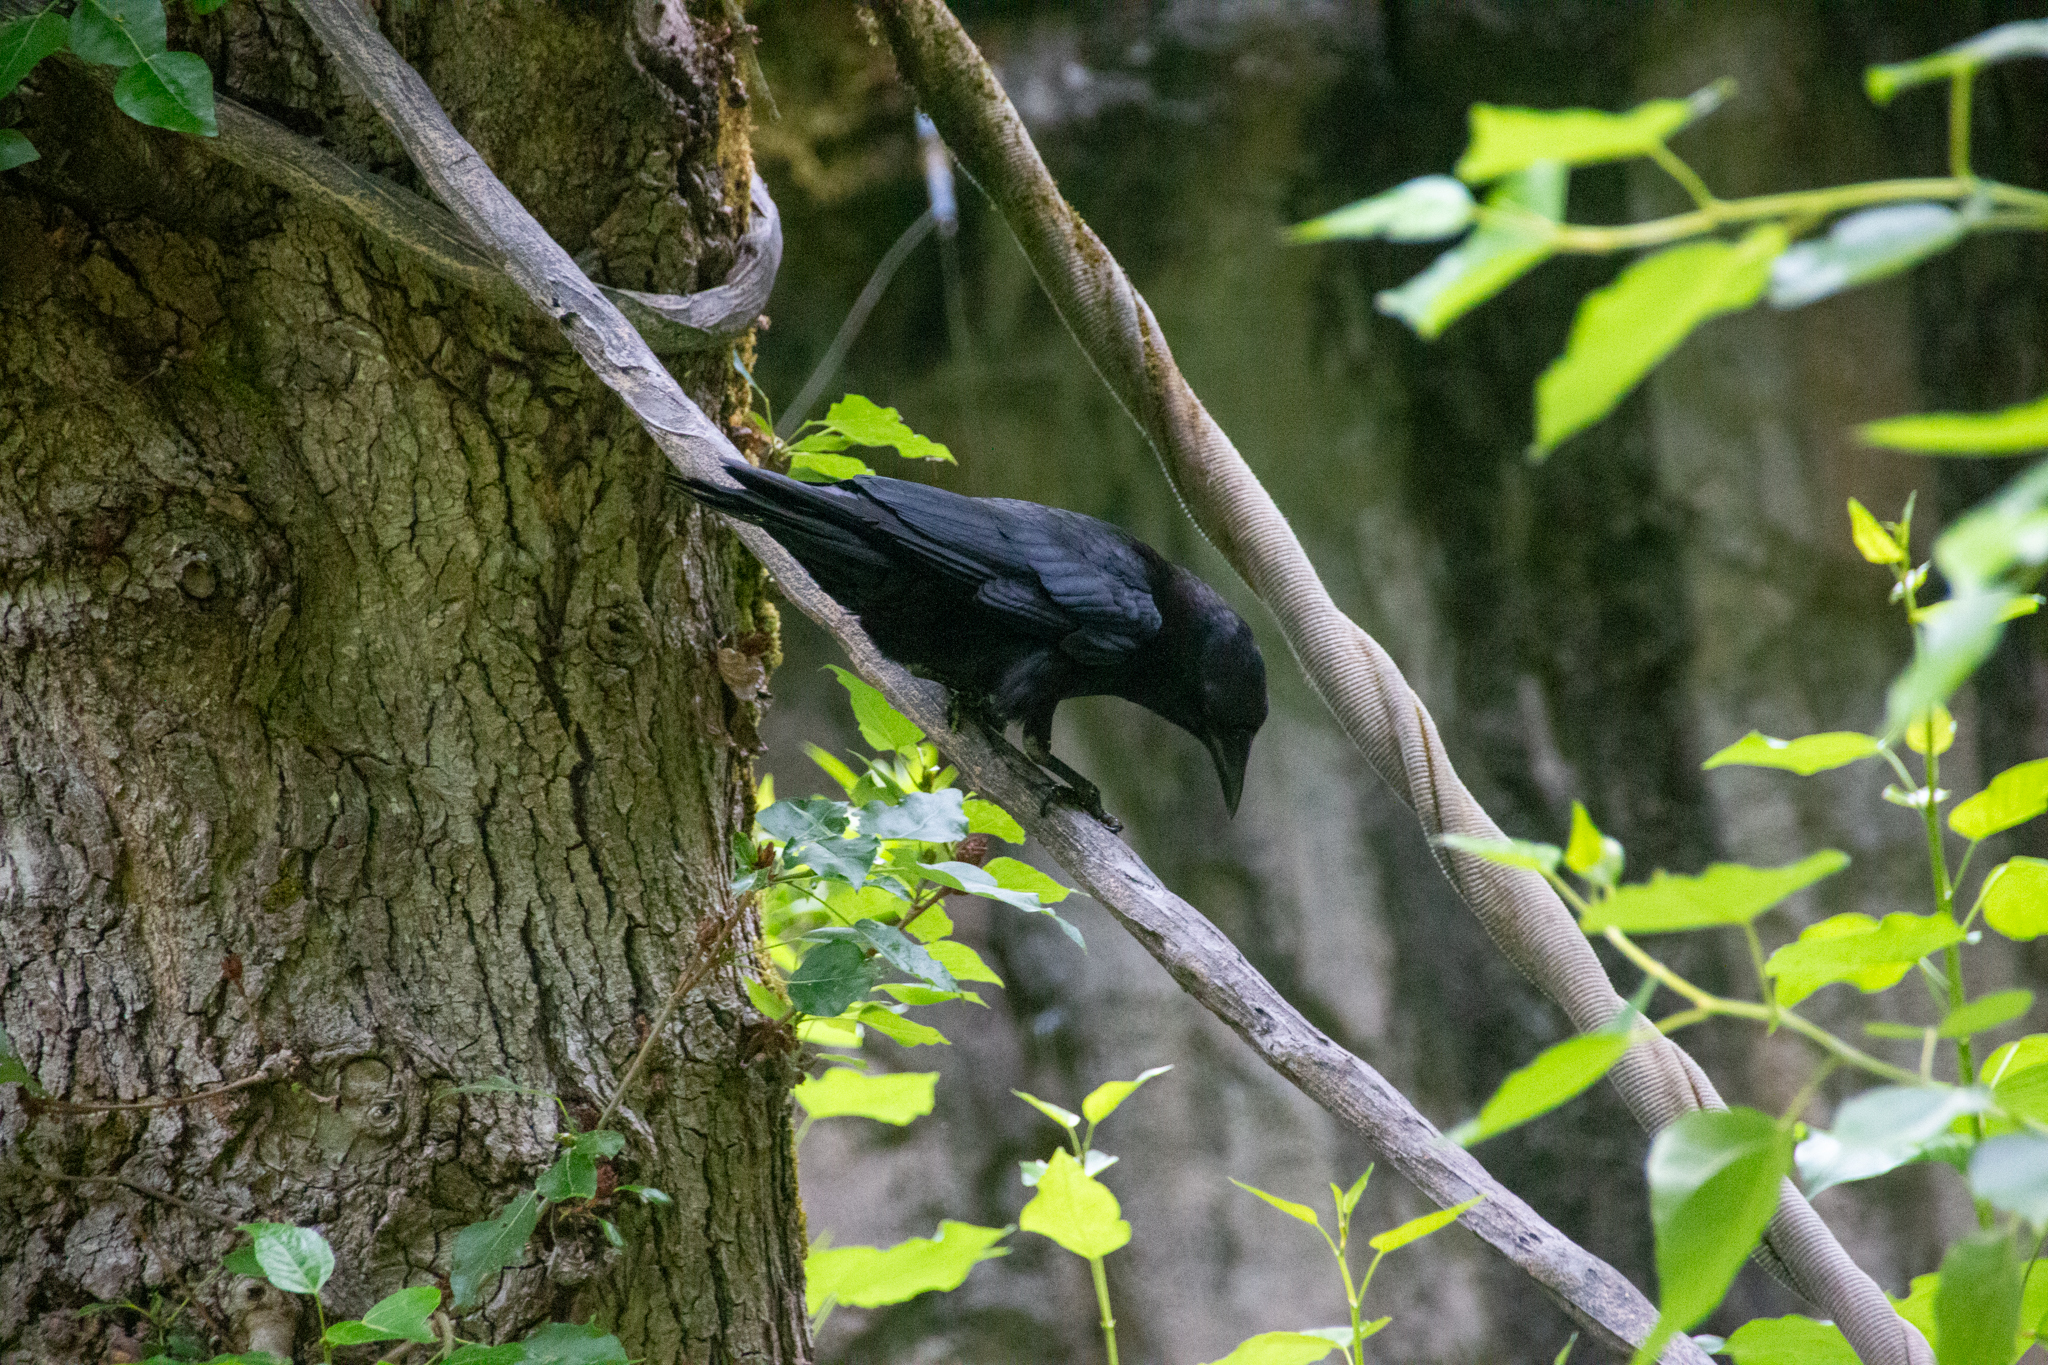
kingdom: Animalia
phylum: Chordata
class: Aves
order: Passeriformes
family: Corvidae
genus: Corvus
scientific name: Corvus brachyrhynchos
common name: American crow
